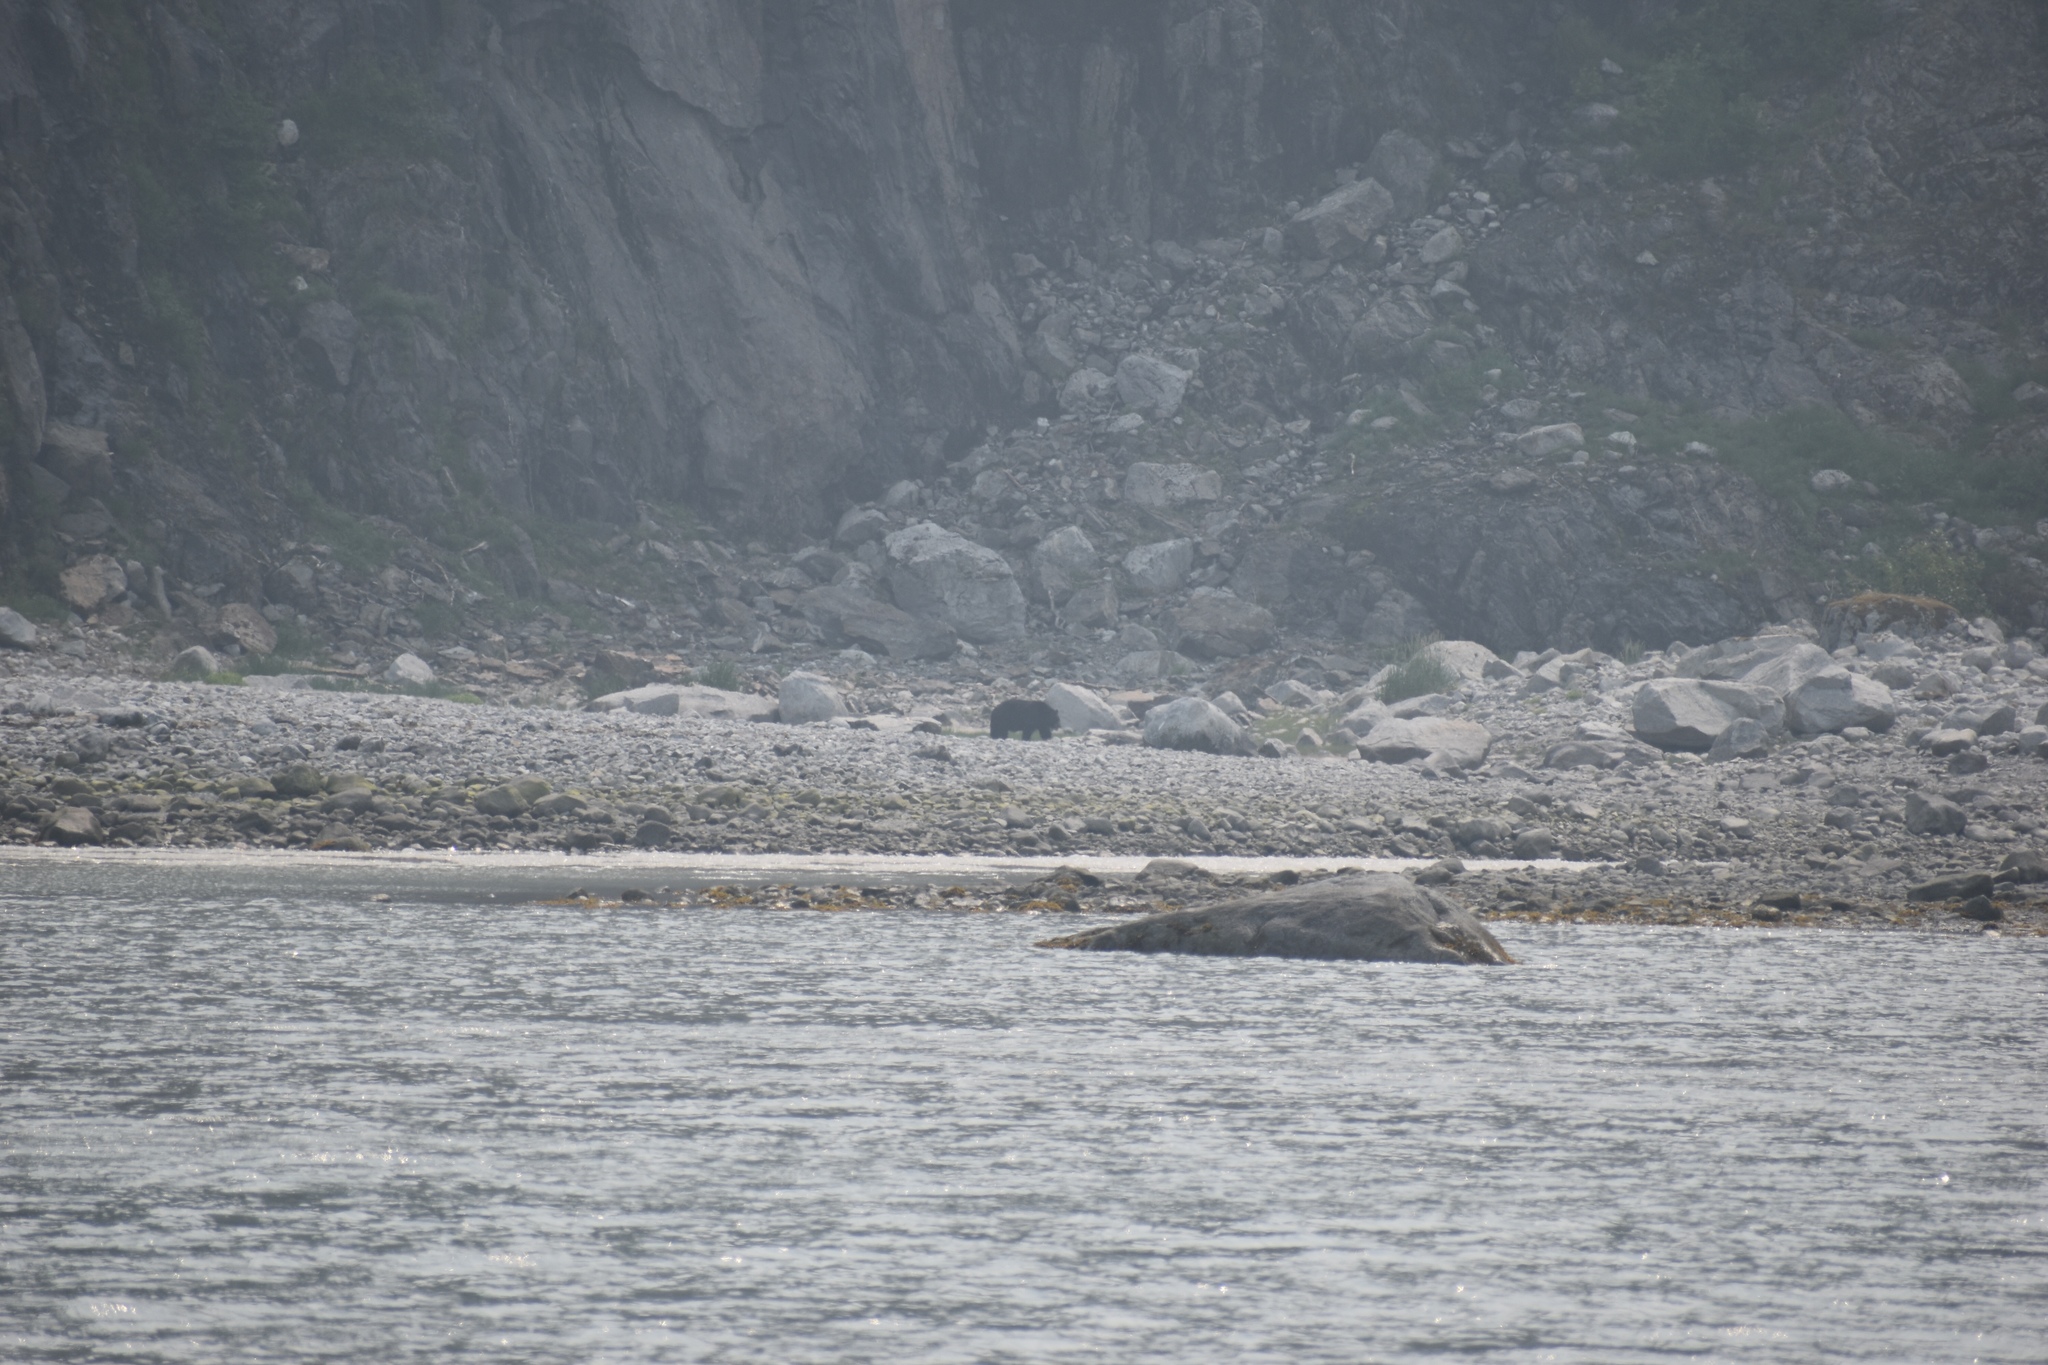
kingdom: Animalia
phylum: Chordata
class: Mammalia
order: Carnivora
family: Ursidae
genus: Ursus
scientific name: Ursus americanus
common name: American black bear
